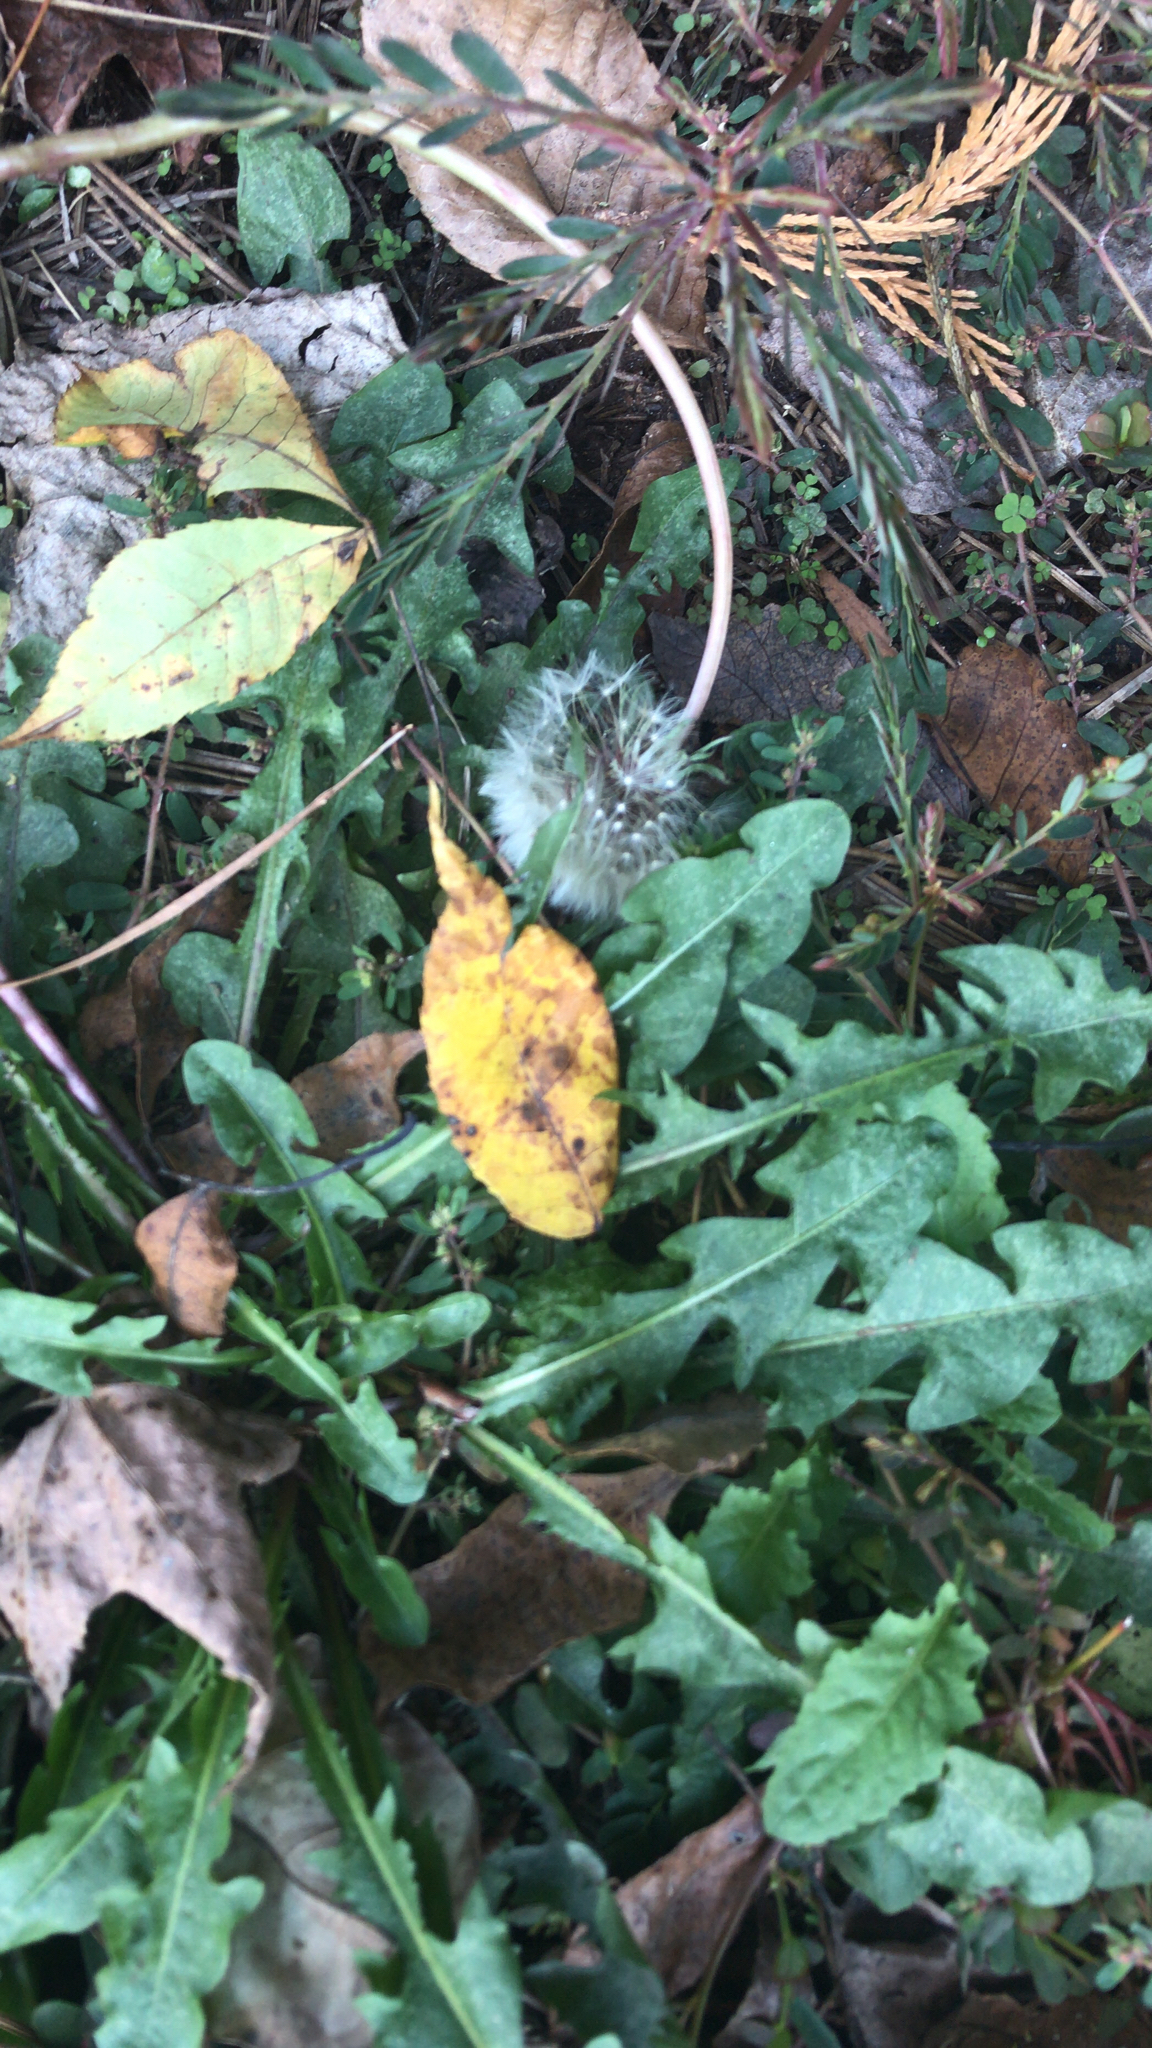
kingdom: Plantae
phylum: Tracheophyta
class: Magnoliopsida
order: Asterales
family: Asteraceae
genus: Taraxacum
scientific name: Taraxacum officinale
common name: Common dandelion
